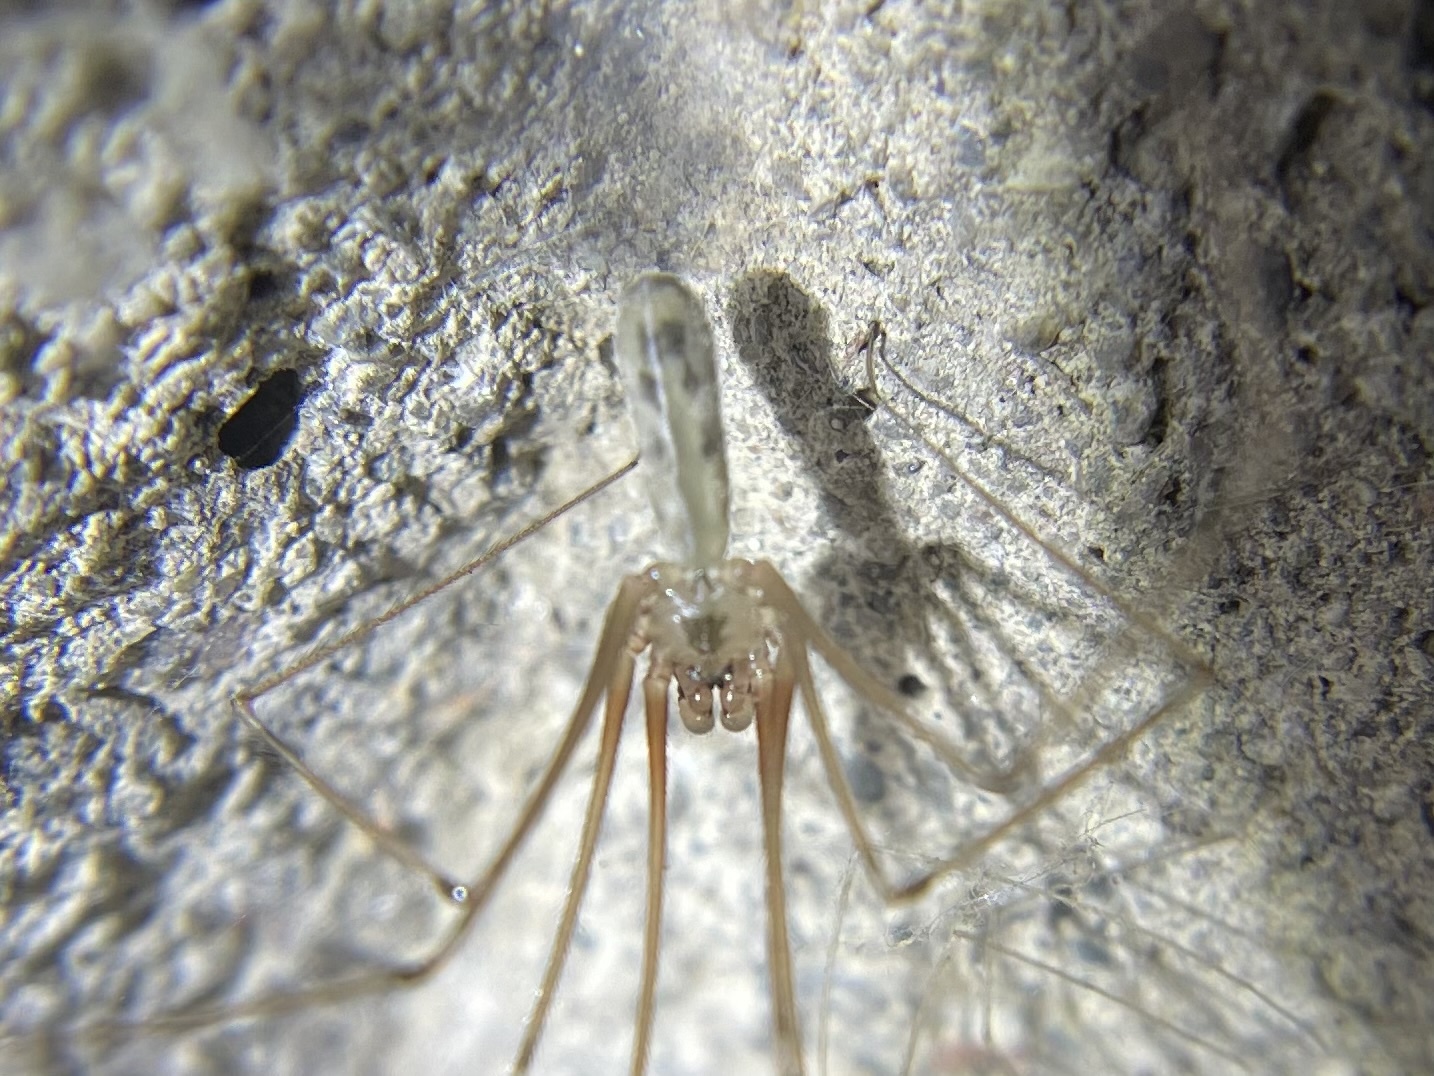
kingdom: Animalia
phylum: Arthropoda
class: Arachnida
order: Araneae
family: Pholcidae
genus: Pholcus
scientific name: Pholcus phalangioides
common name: Longbodied cellar spider
